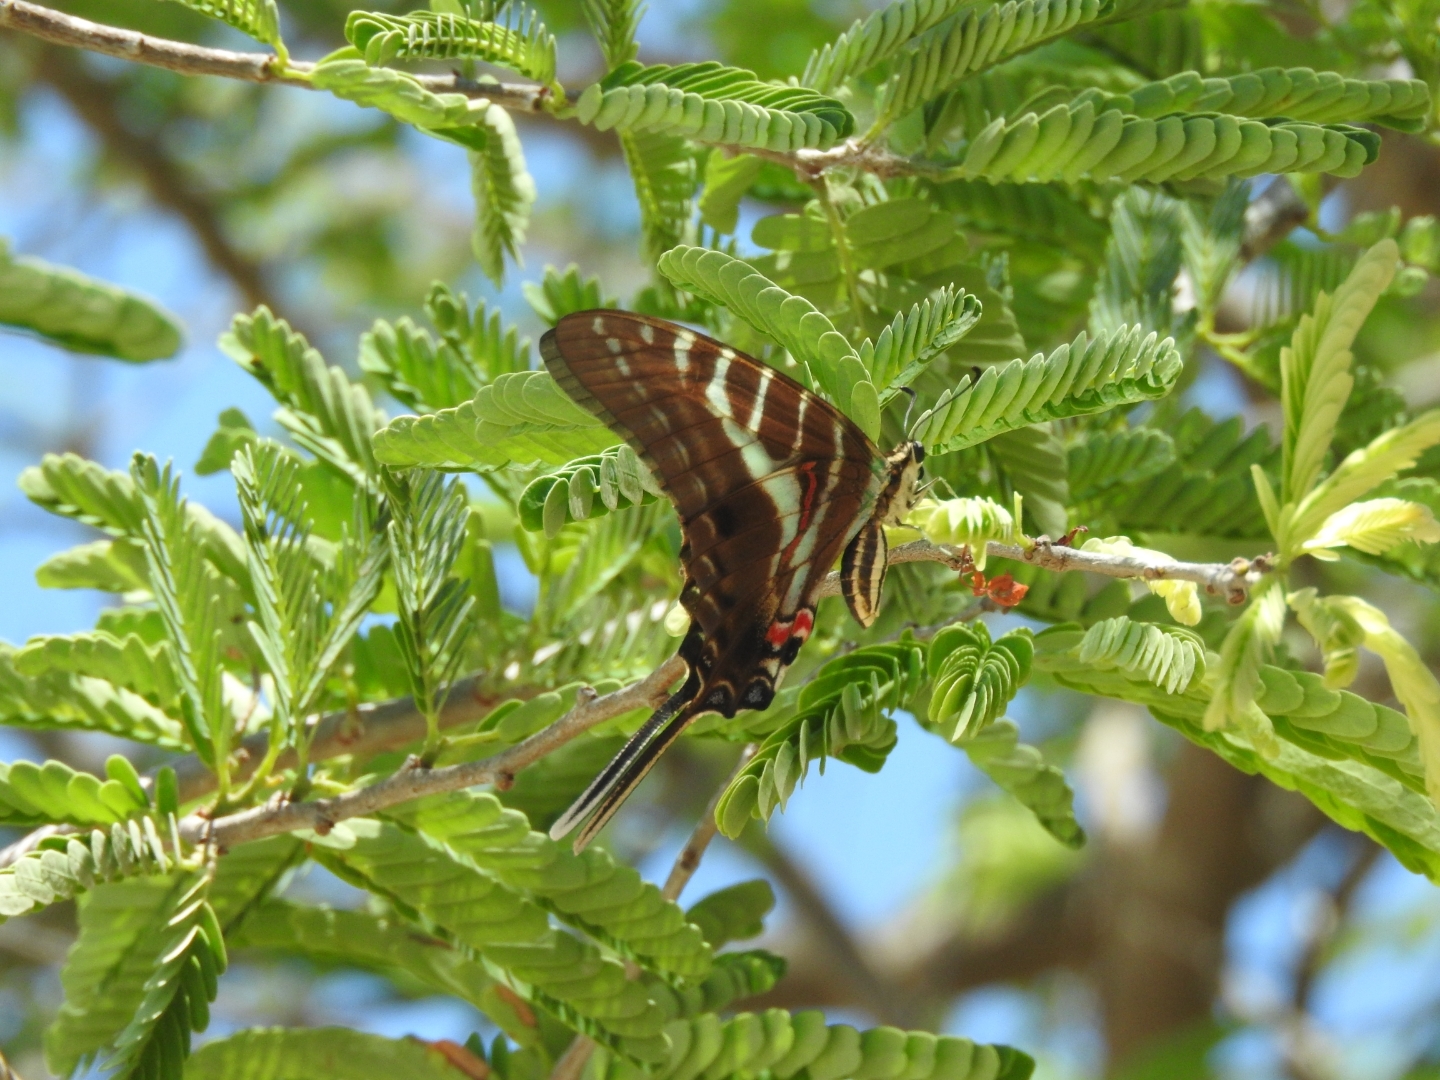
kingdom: Animalia
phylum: Arthropoda
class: Insecta
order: Lepidoptera
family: Papilionidae
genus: Protographium
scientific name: Protographium philolaus
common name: Dark zebra swallowtail
